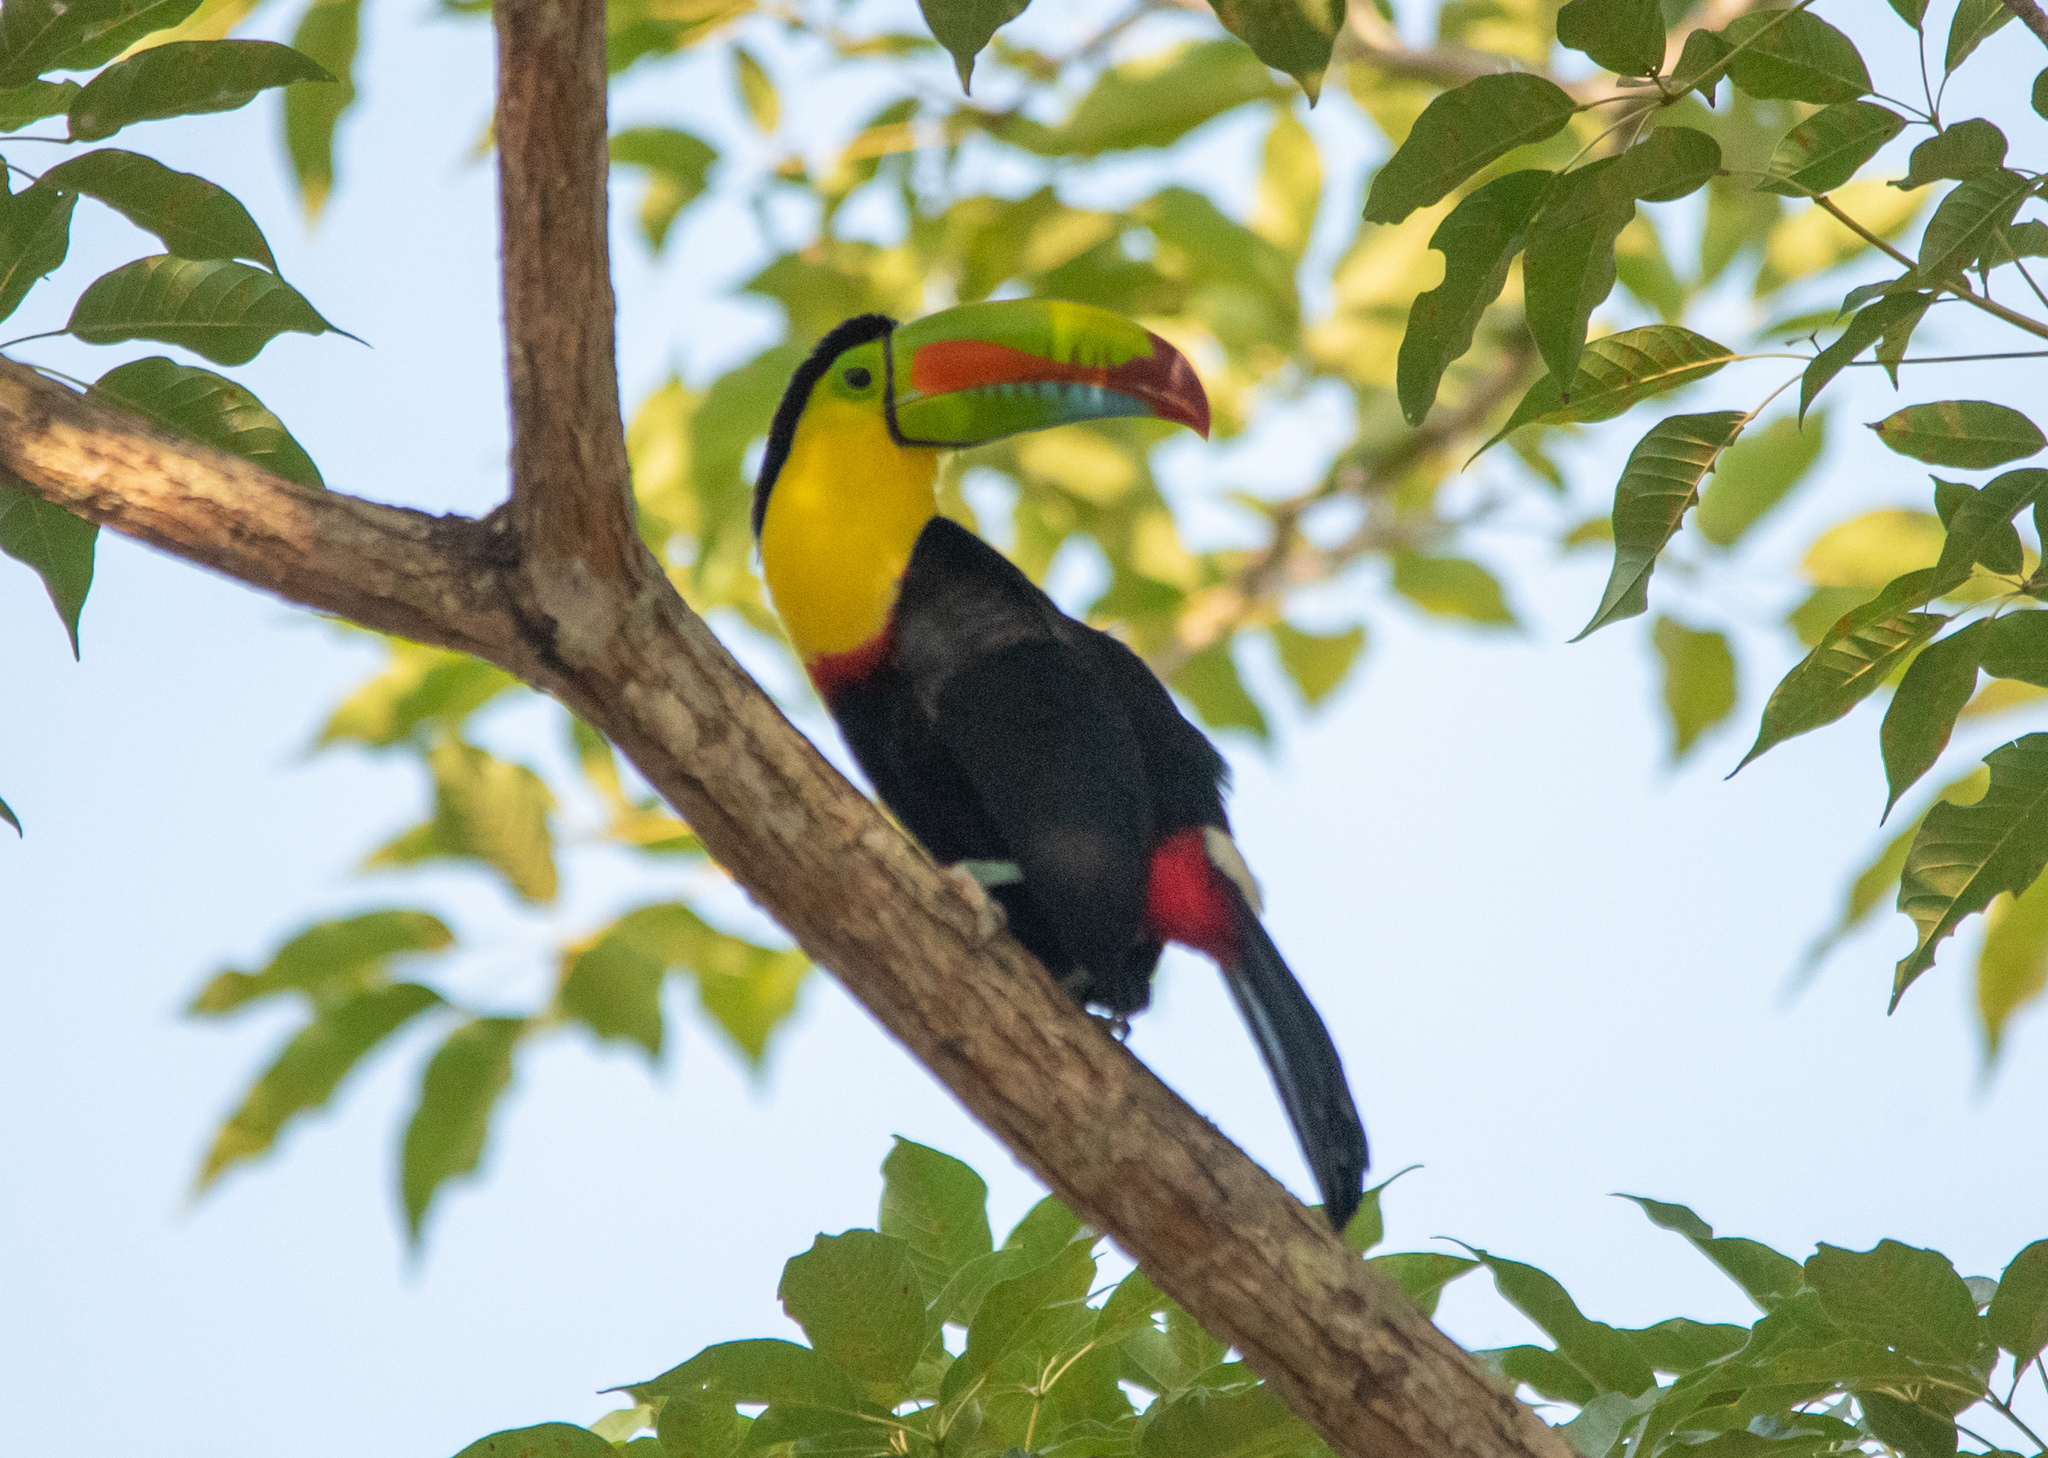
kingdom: Animalia
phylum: Chordata
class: Aves
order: Piciformes
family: Ramphastidae
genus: Ramphastos
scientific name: Ramphastos sulfuratus
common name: Keel-billed toucan
